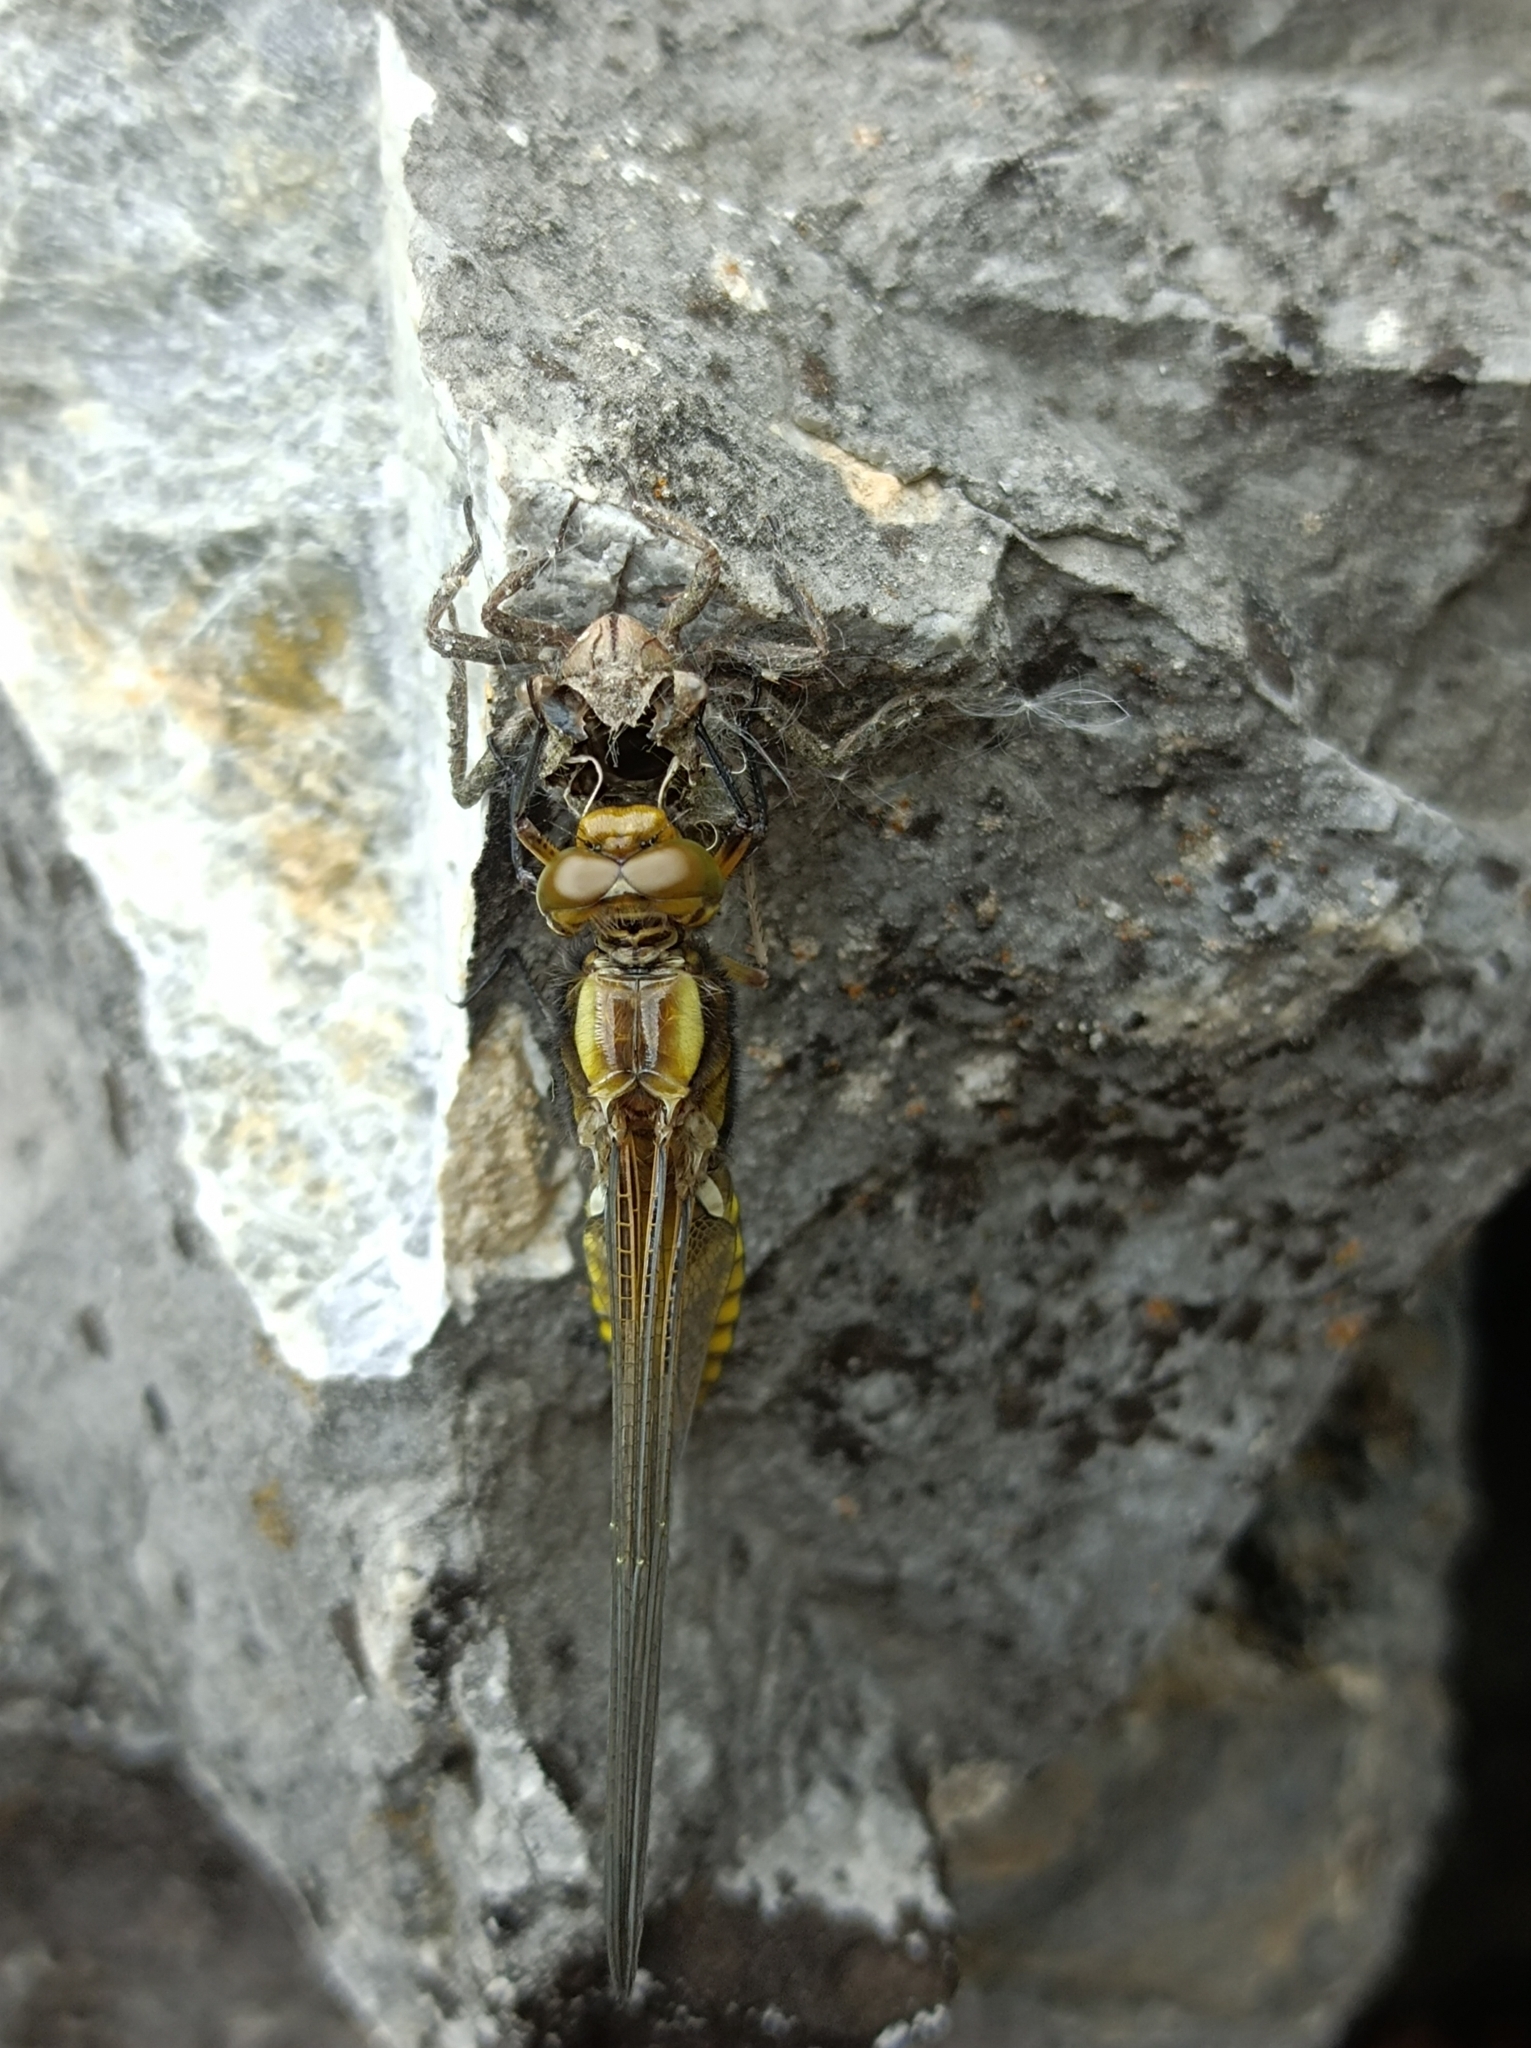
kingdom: Animalia
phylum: Arthropoda
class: Insecta
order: Odonata
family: Libellulidae
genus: Libellula
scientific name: Libellula depressa
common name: Broad-bodied chaser
